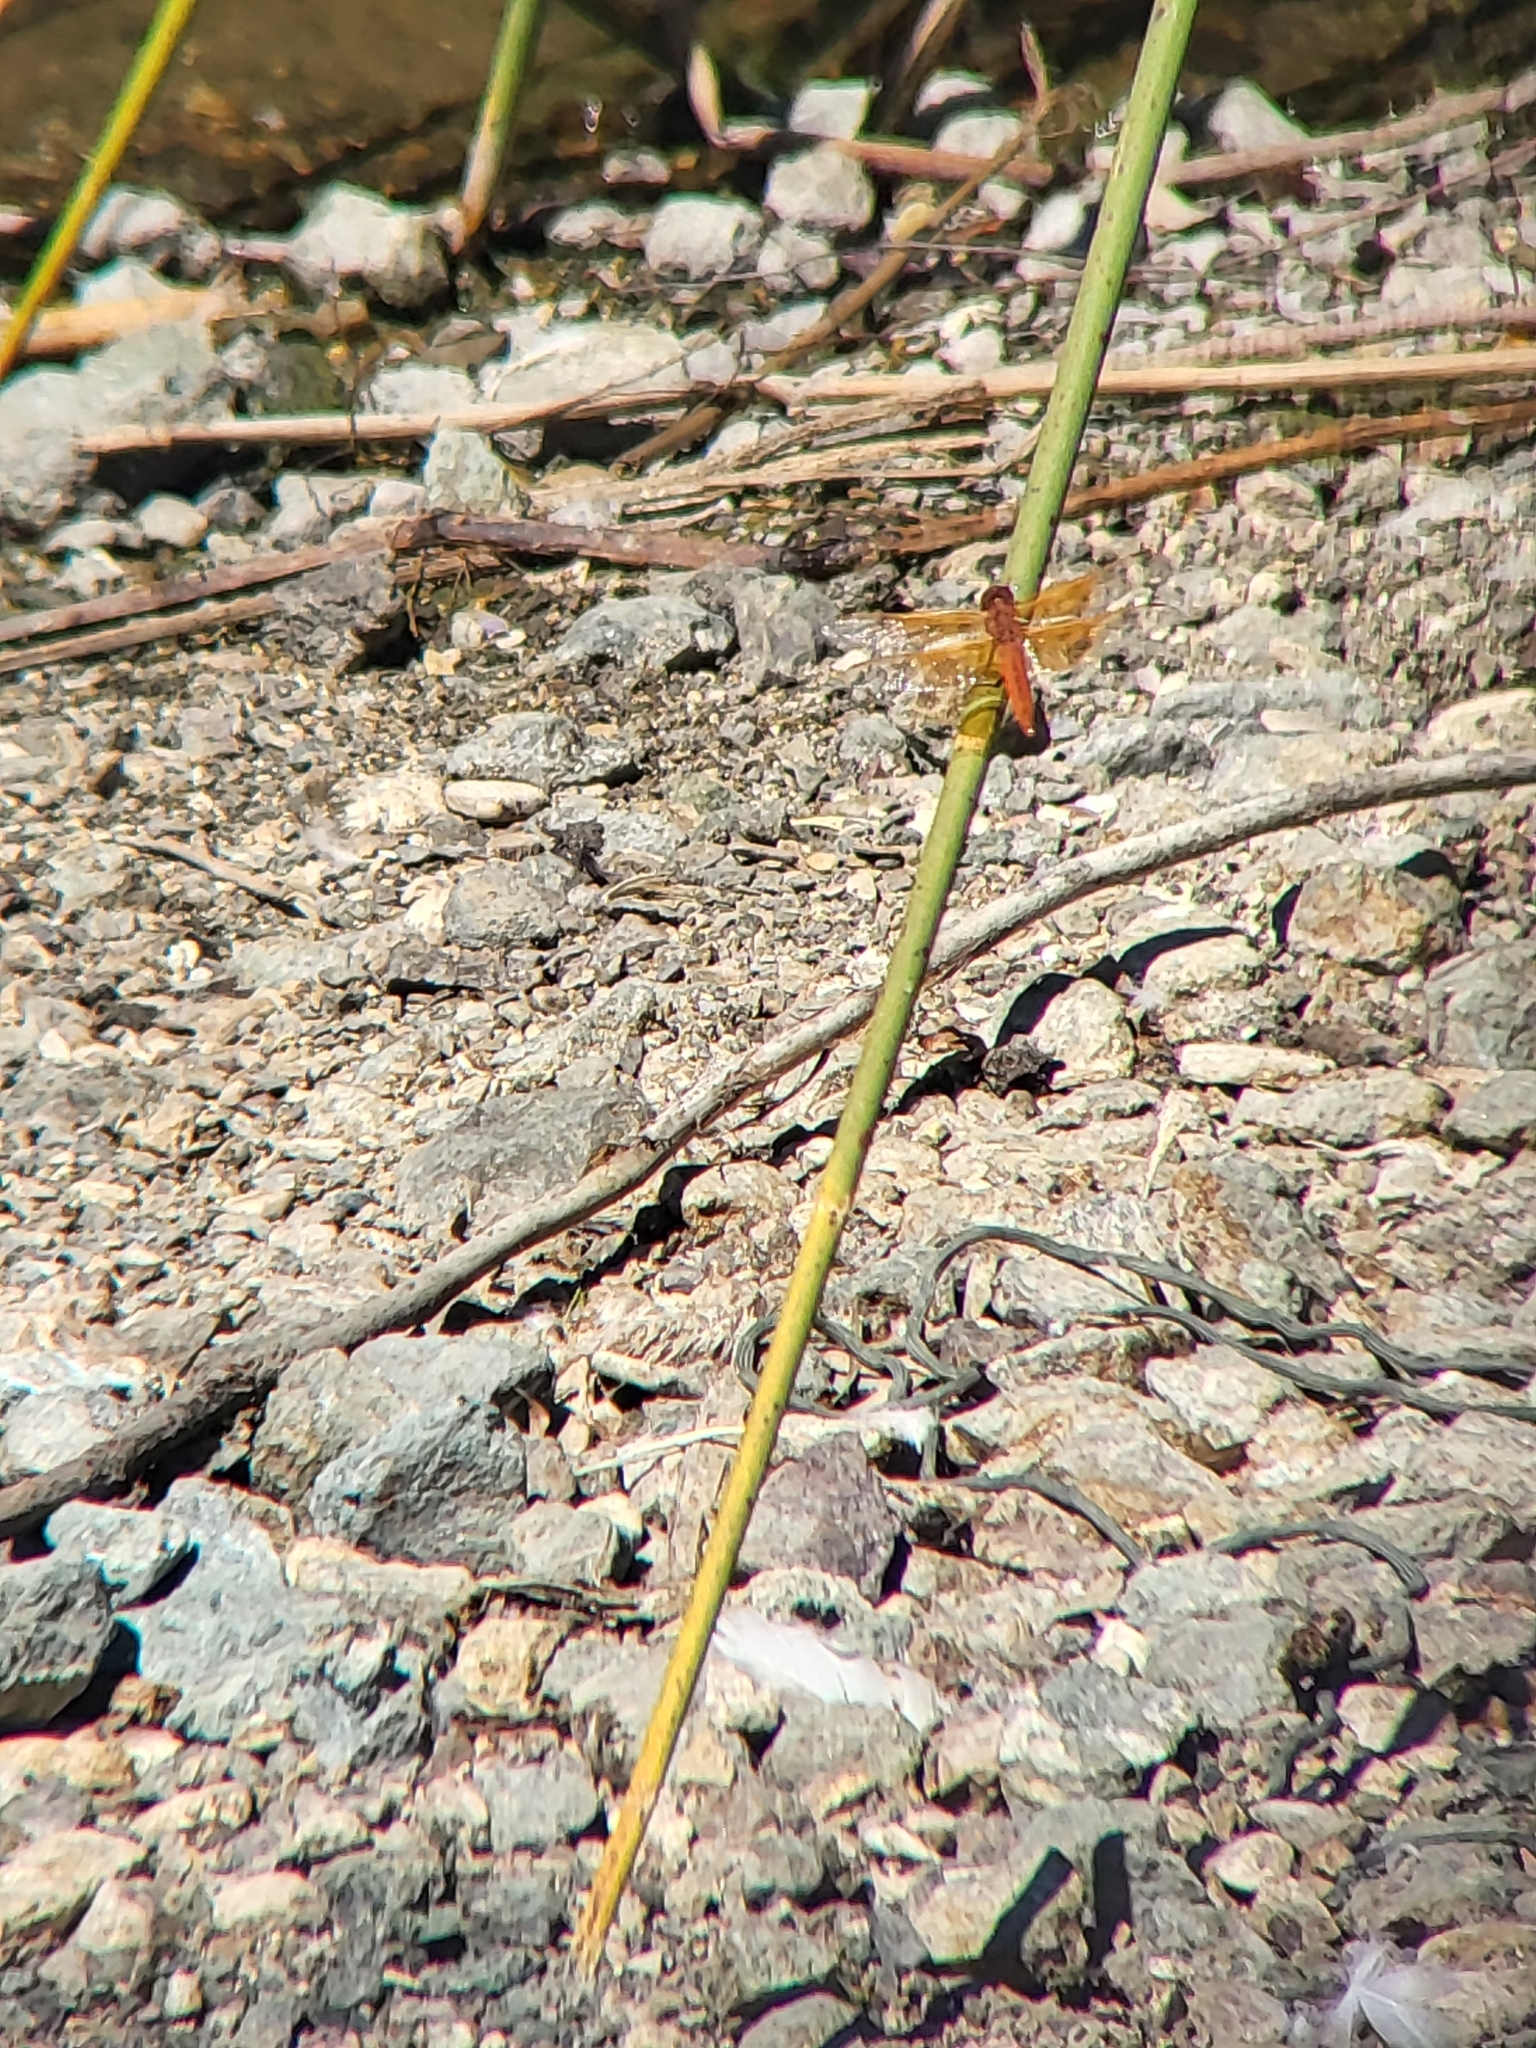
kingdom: Animalia
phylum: Arthropoda
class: Insecta
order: Odonata
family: Libellulidae
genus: Libellula
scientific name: Libellula saturata
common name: Flame skimmer
